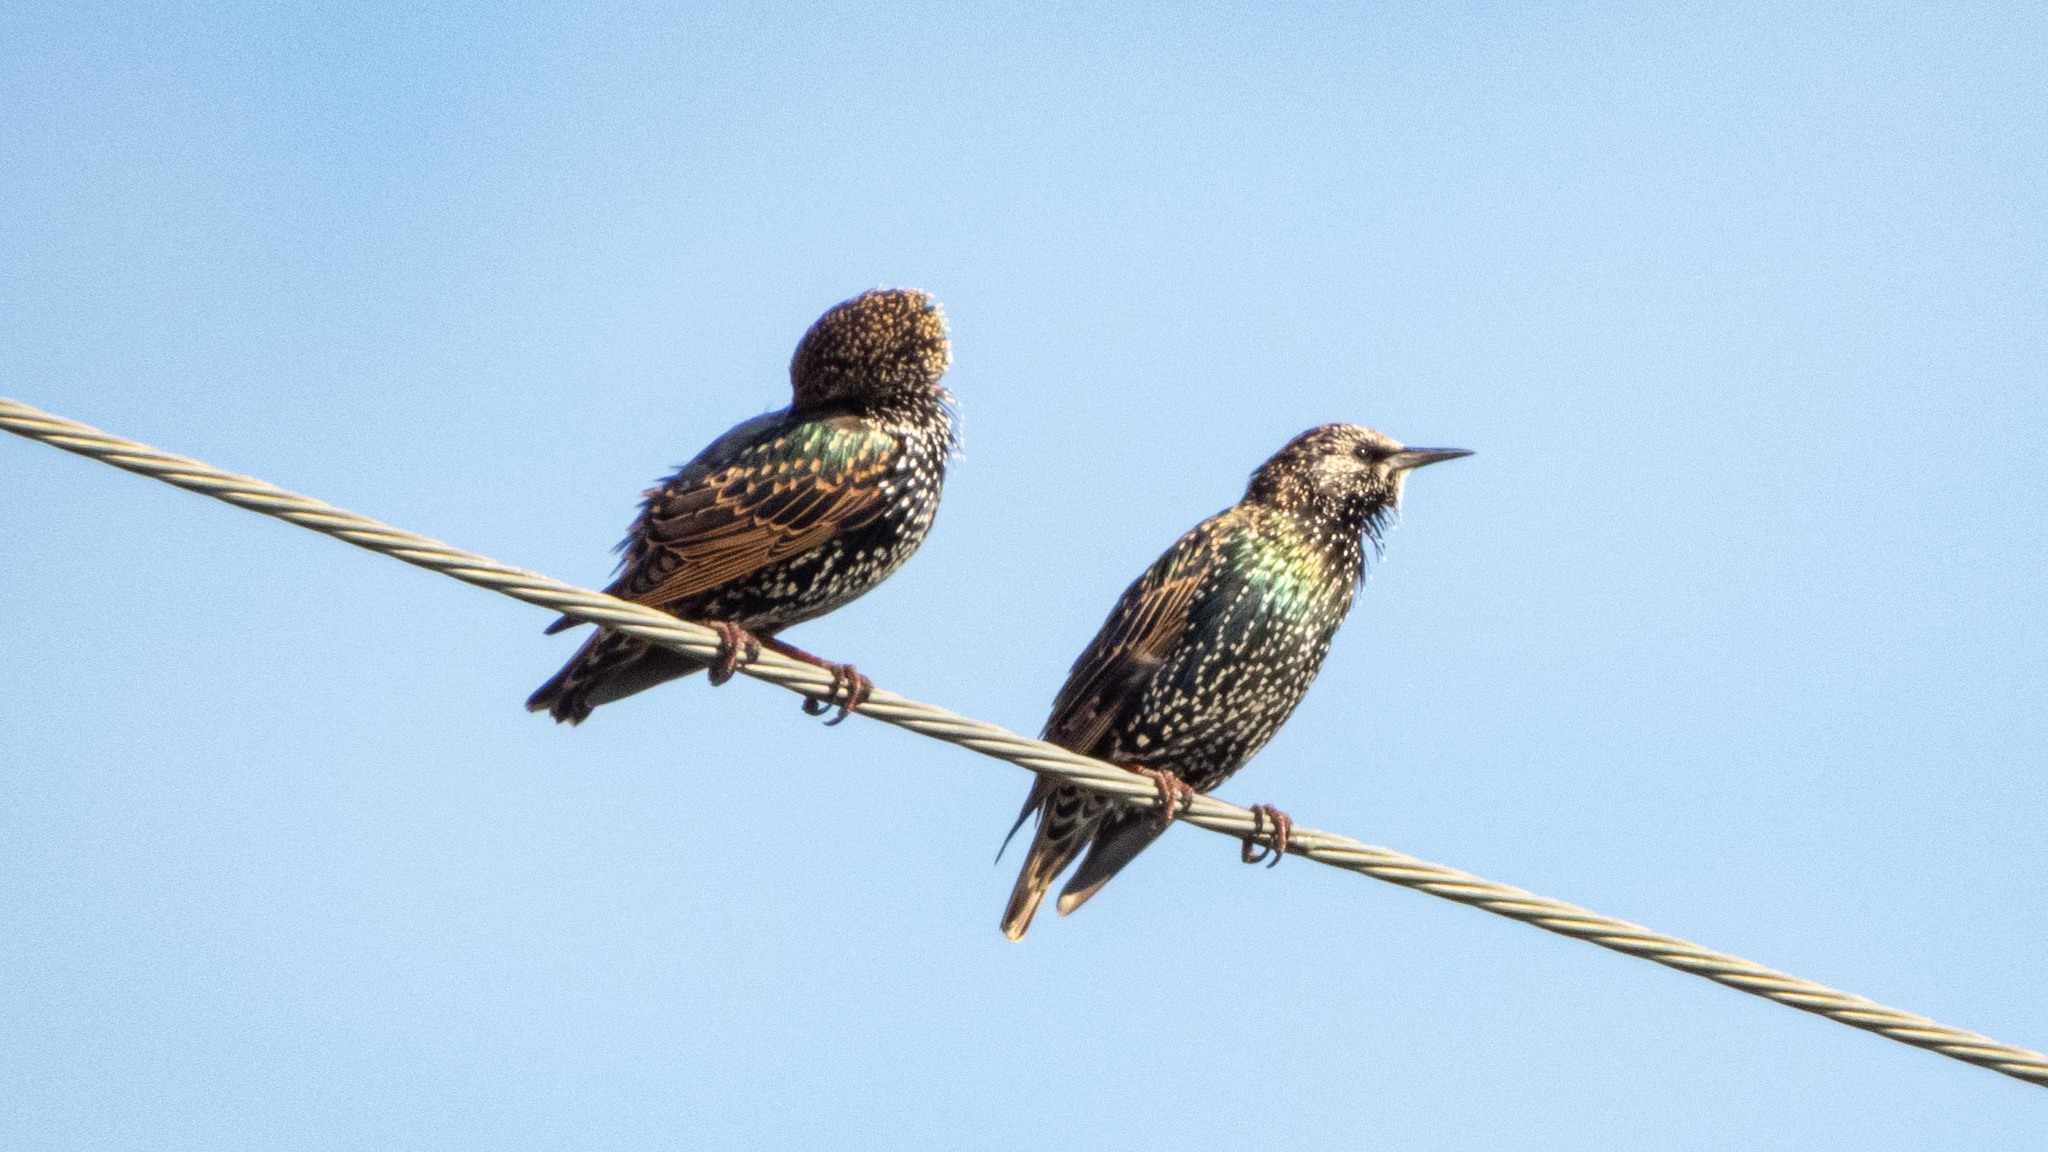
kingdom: Animalia
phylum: Chordata
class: Aves
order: Passeriformes
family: Sturnidae
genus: Sturnus
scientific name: Sturnus vulgaris
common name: Common starling
